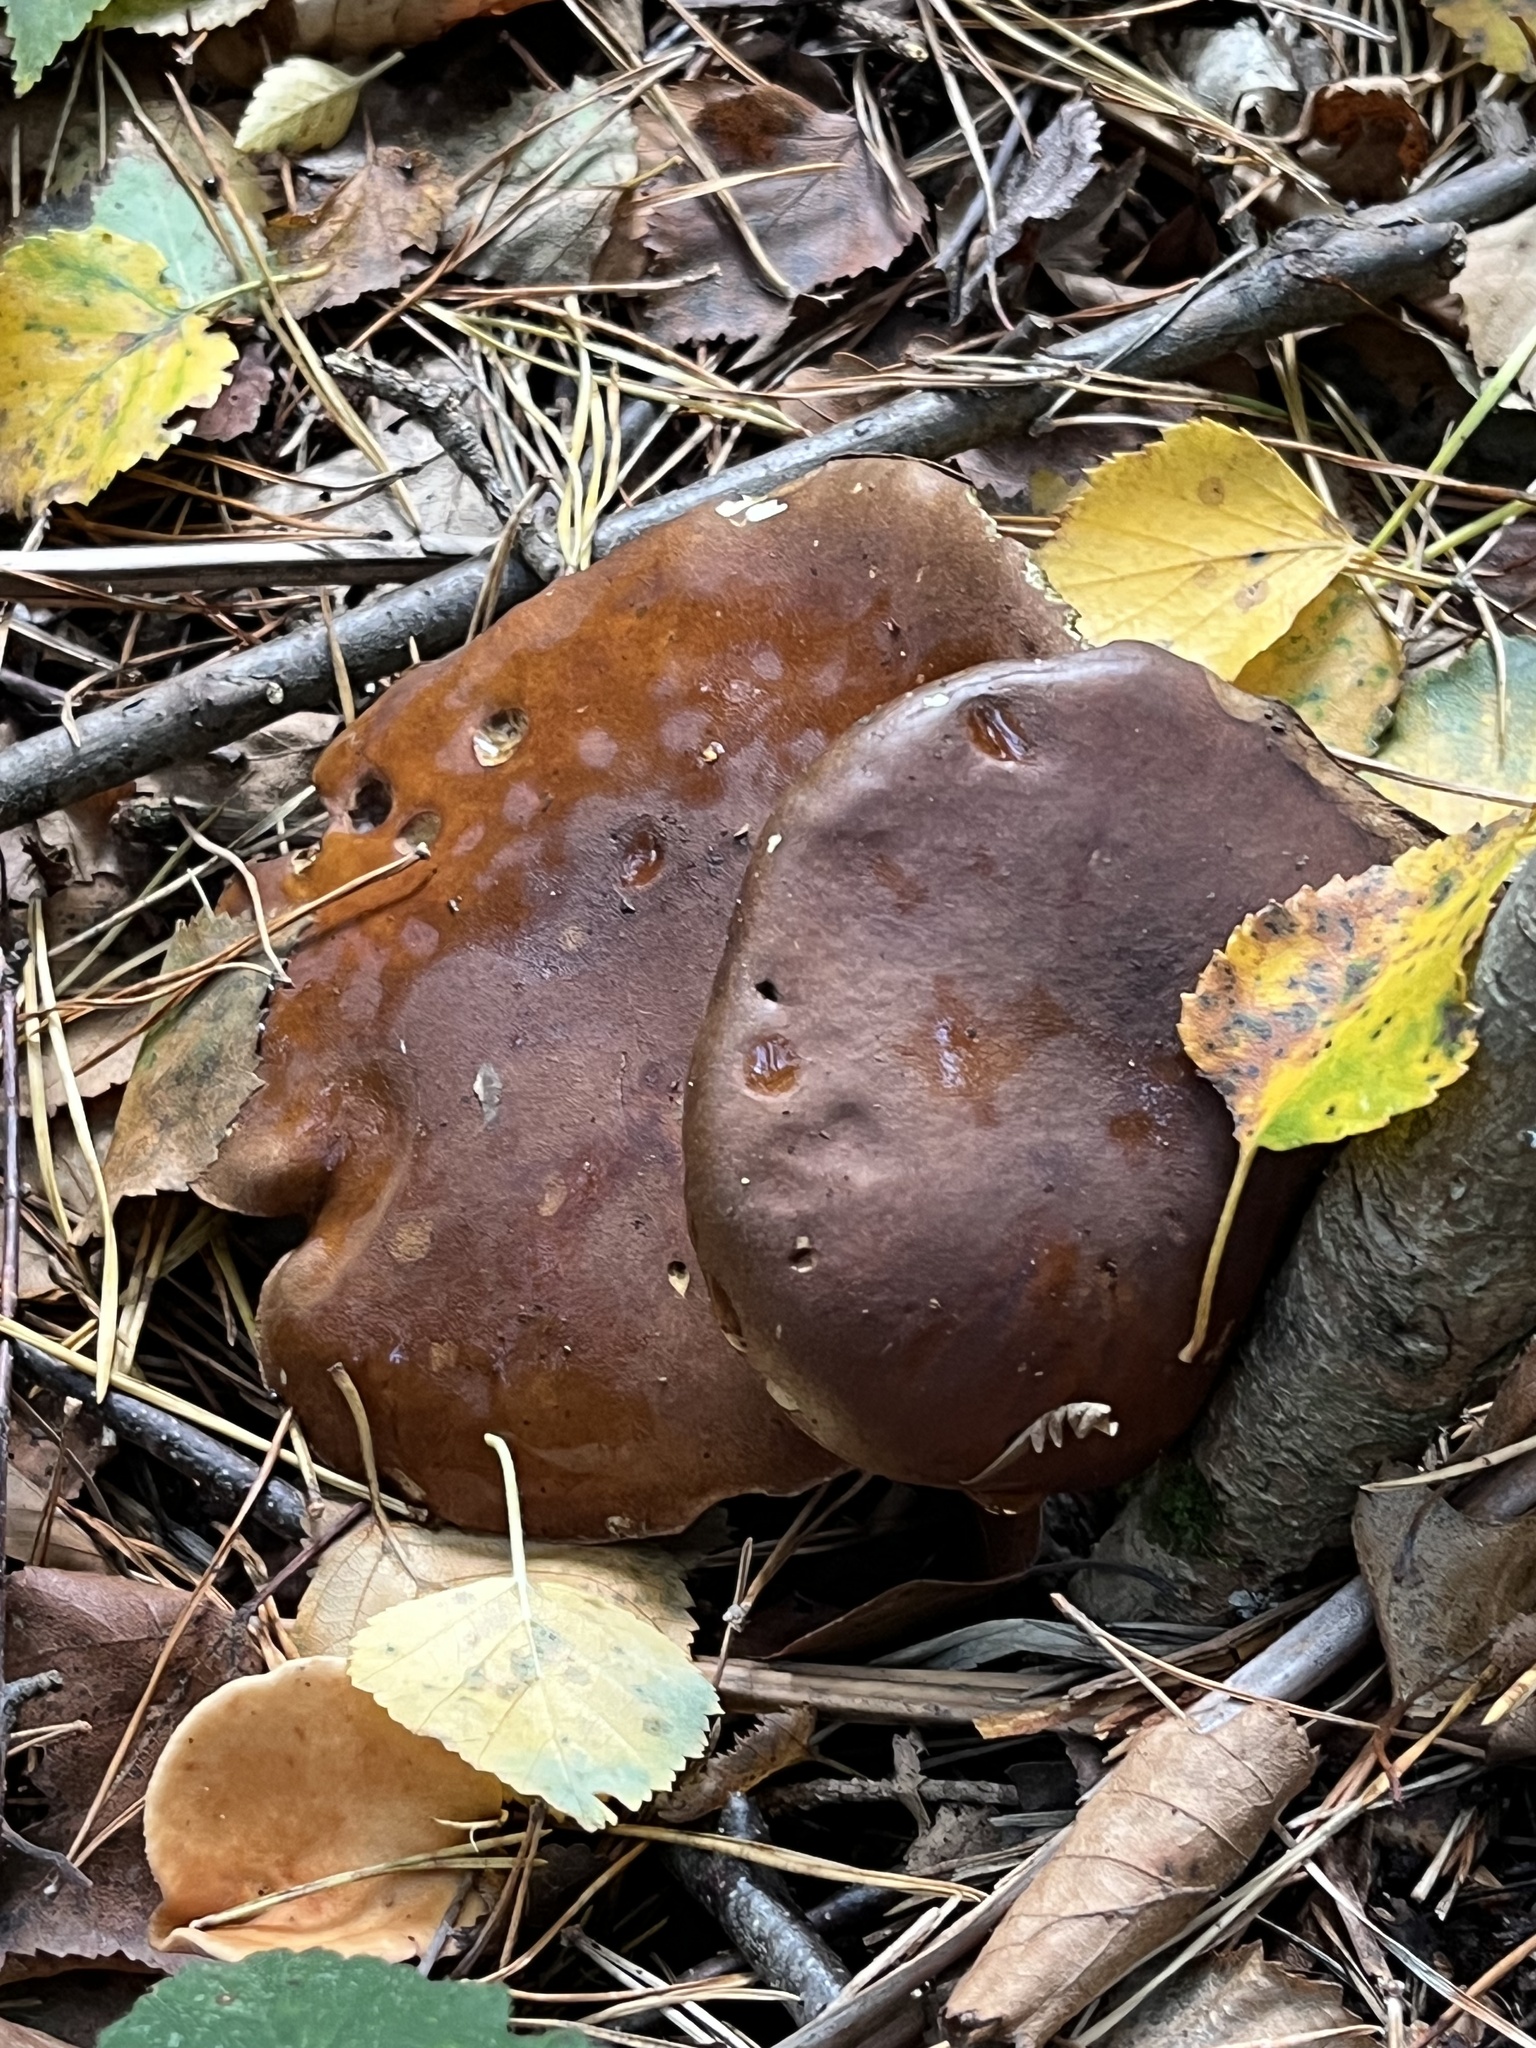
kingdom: Fungi
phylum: Basidiomycota
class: Agaricomycetes
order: Boletales
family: Boletaceae
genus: Imleria
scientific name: Imleria badia
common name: Bay bolete
